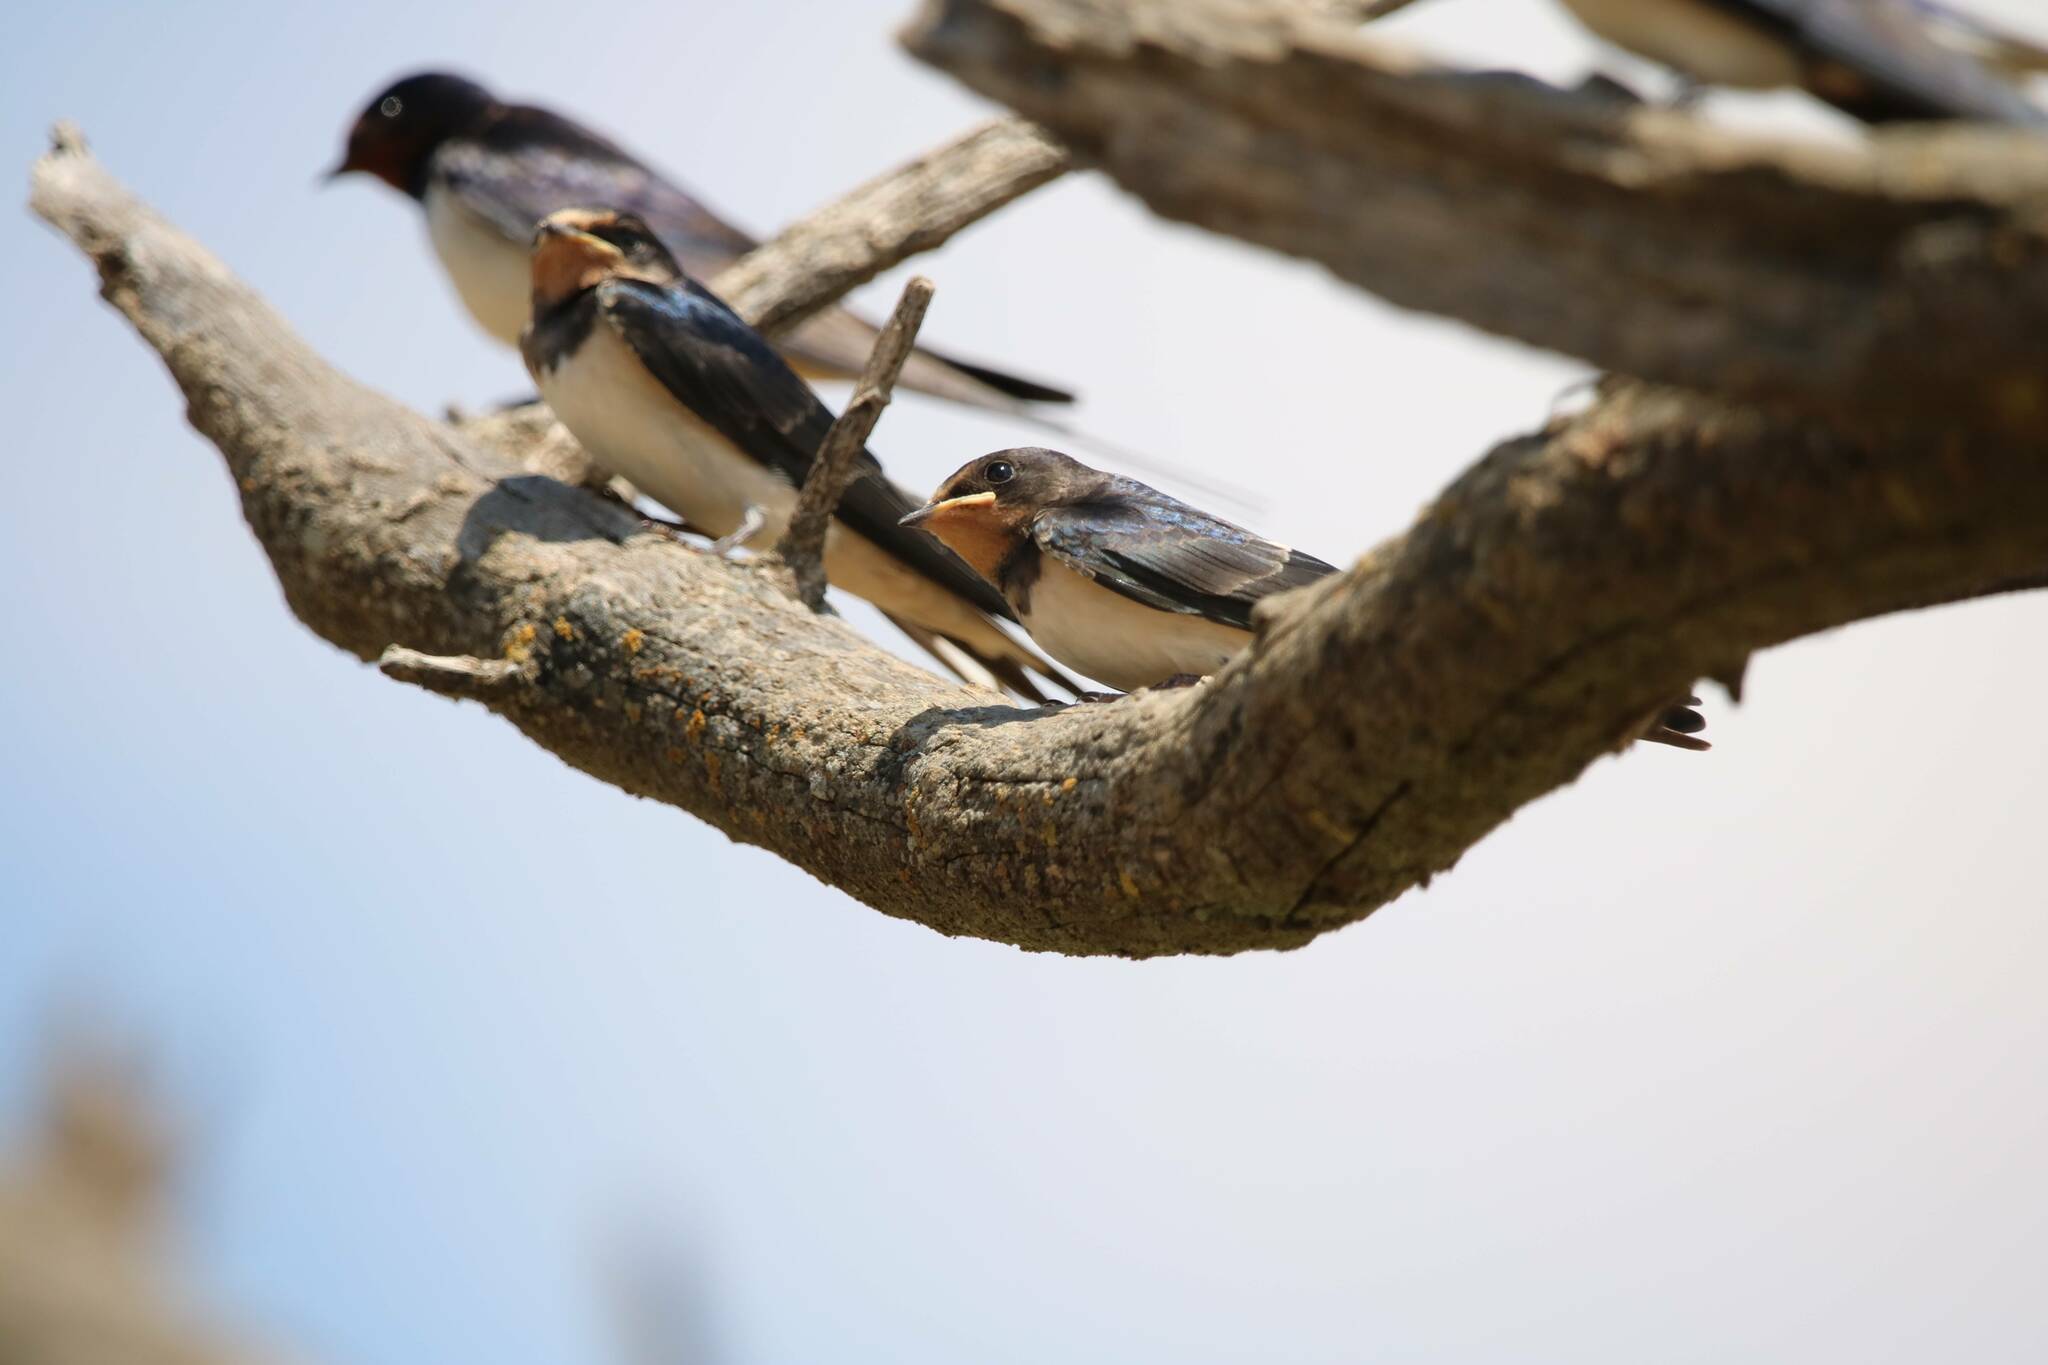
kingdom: Animalia
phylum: Chordata
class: Aves
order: Passeriformes
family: Hirundinidae
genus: Hirundo
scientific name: Hirundo rustica
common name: Barn swallow
